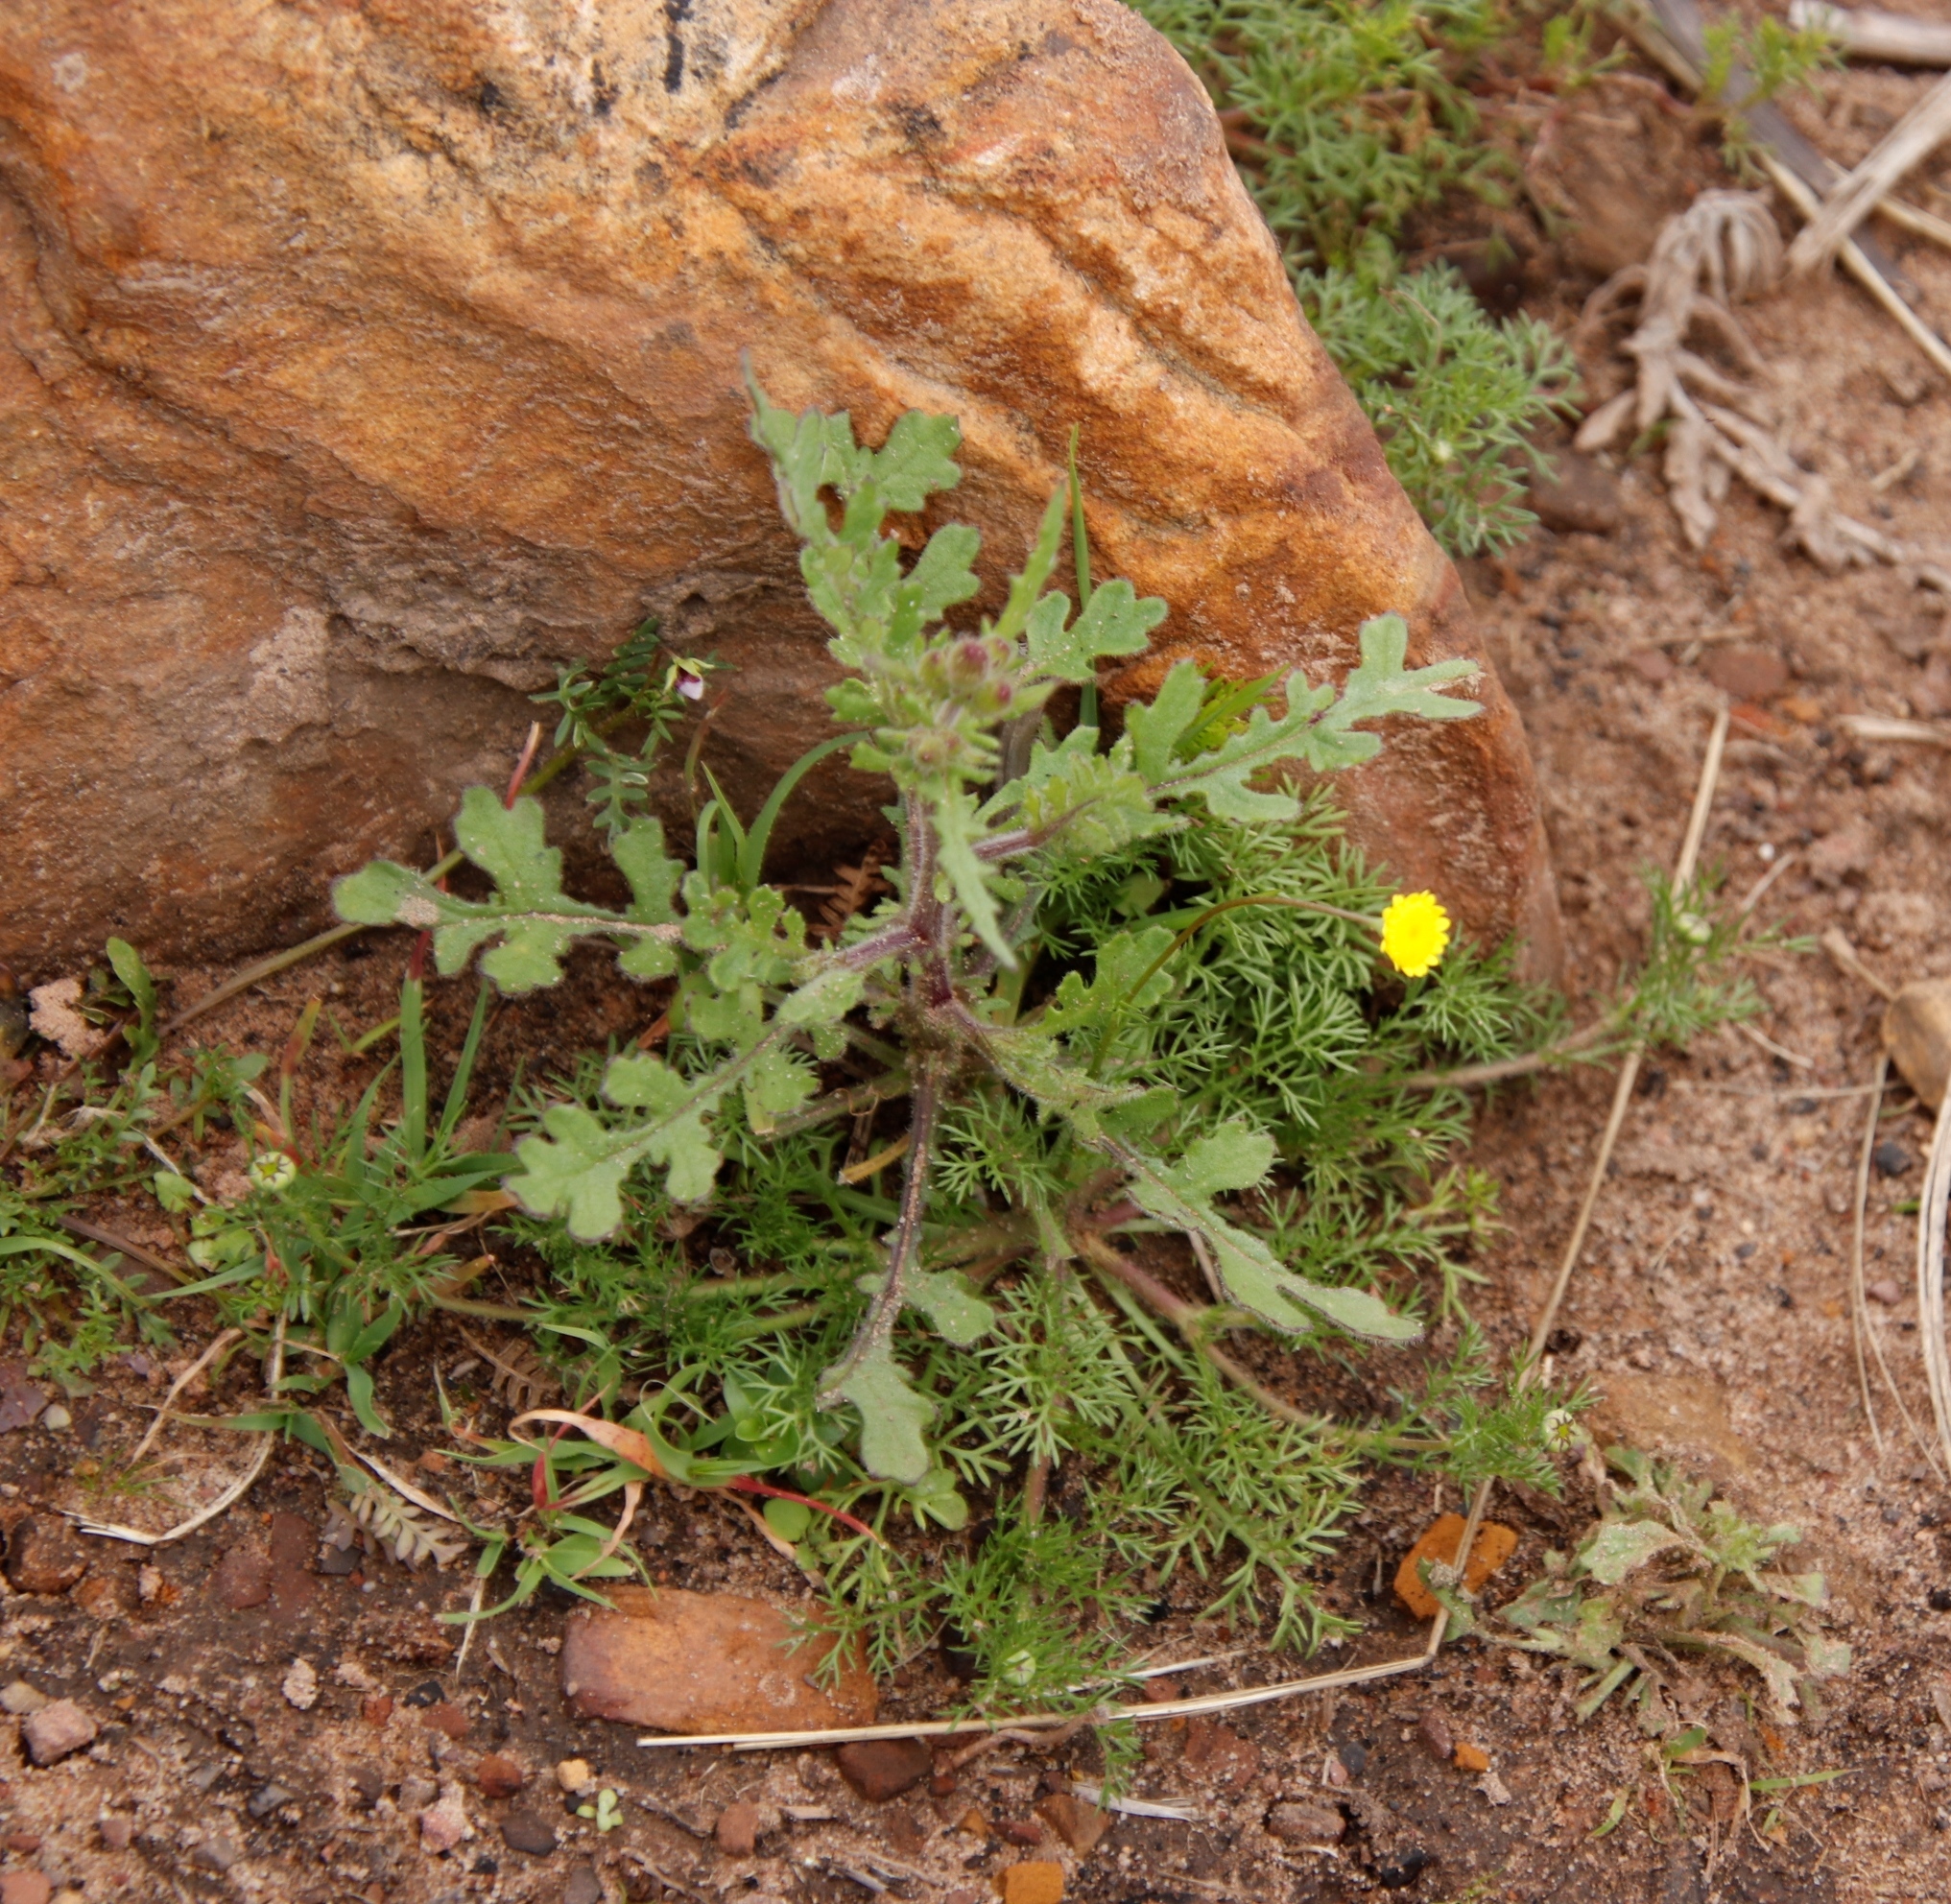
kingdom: Plantae
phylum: Tracheophyta
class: Magnoliopsida
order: Asterales
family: Asteraceae
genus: Cotula
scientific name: Cotula pruinosa
